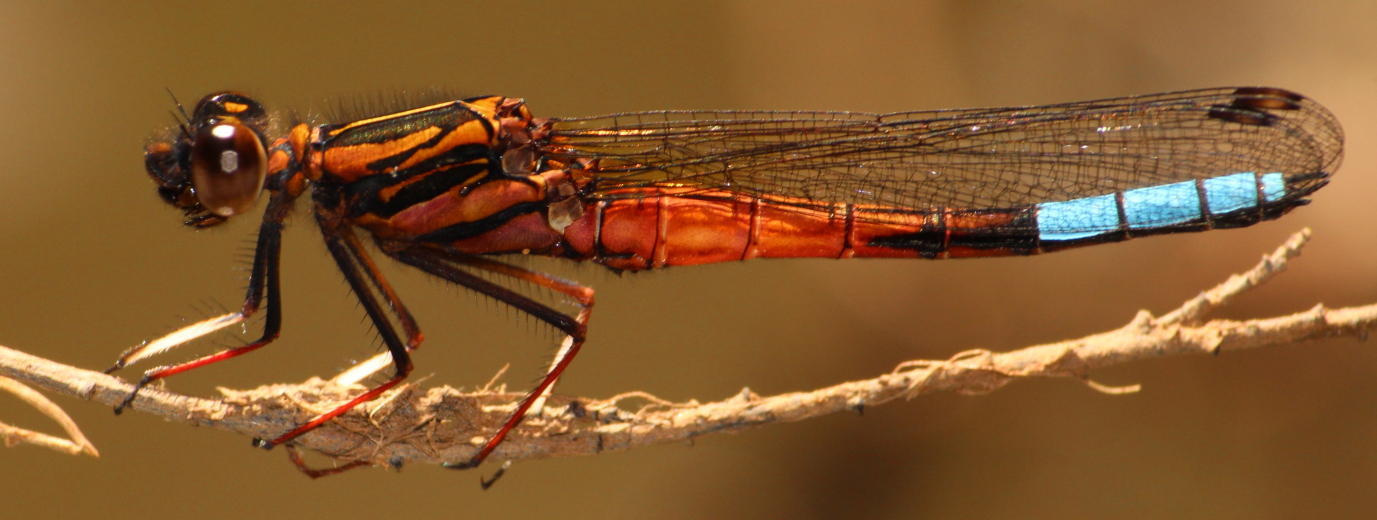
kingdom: Animalia
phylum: Arthropoda
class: Insecta
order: Odonata
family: Chlorocyphidae
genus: Platycypha
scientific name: Platycypha fitzsimonsi
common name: Boulder jewel
